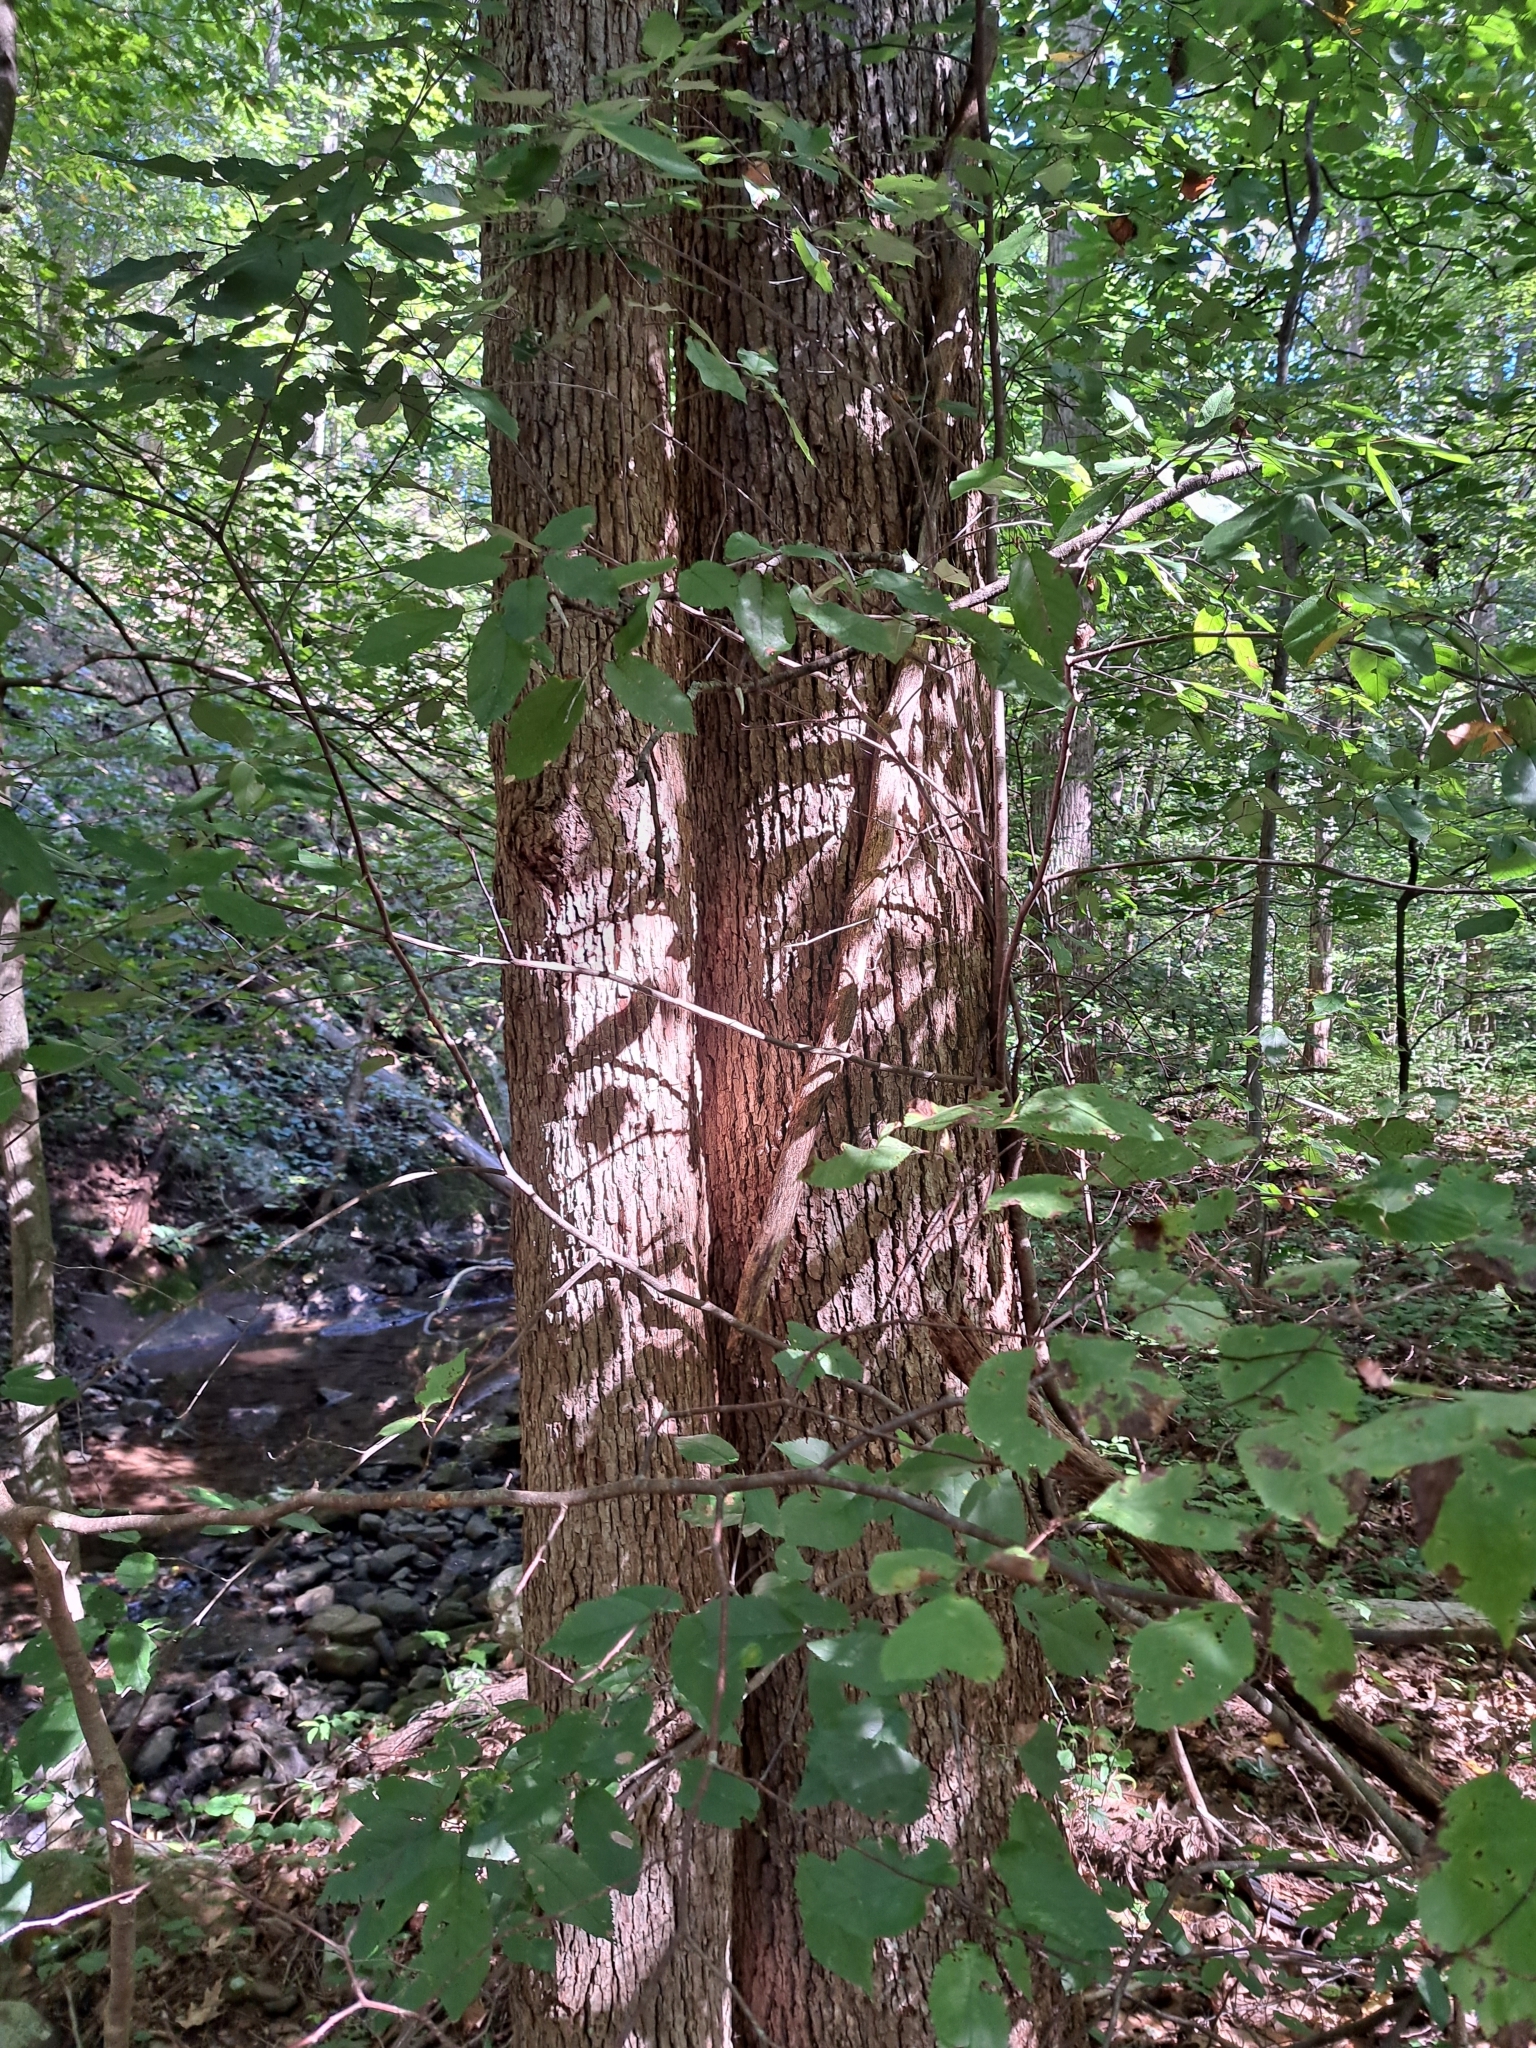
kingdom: Plantae
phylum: Tracheophyta
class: Magnoliopsida
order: Magnoliales
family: Magnoliaceae
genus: Magnolia
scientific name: Magnolia acuminata
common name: Cucumber magnolia
